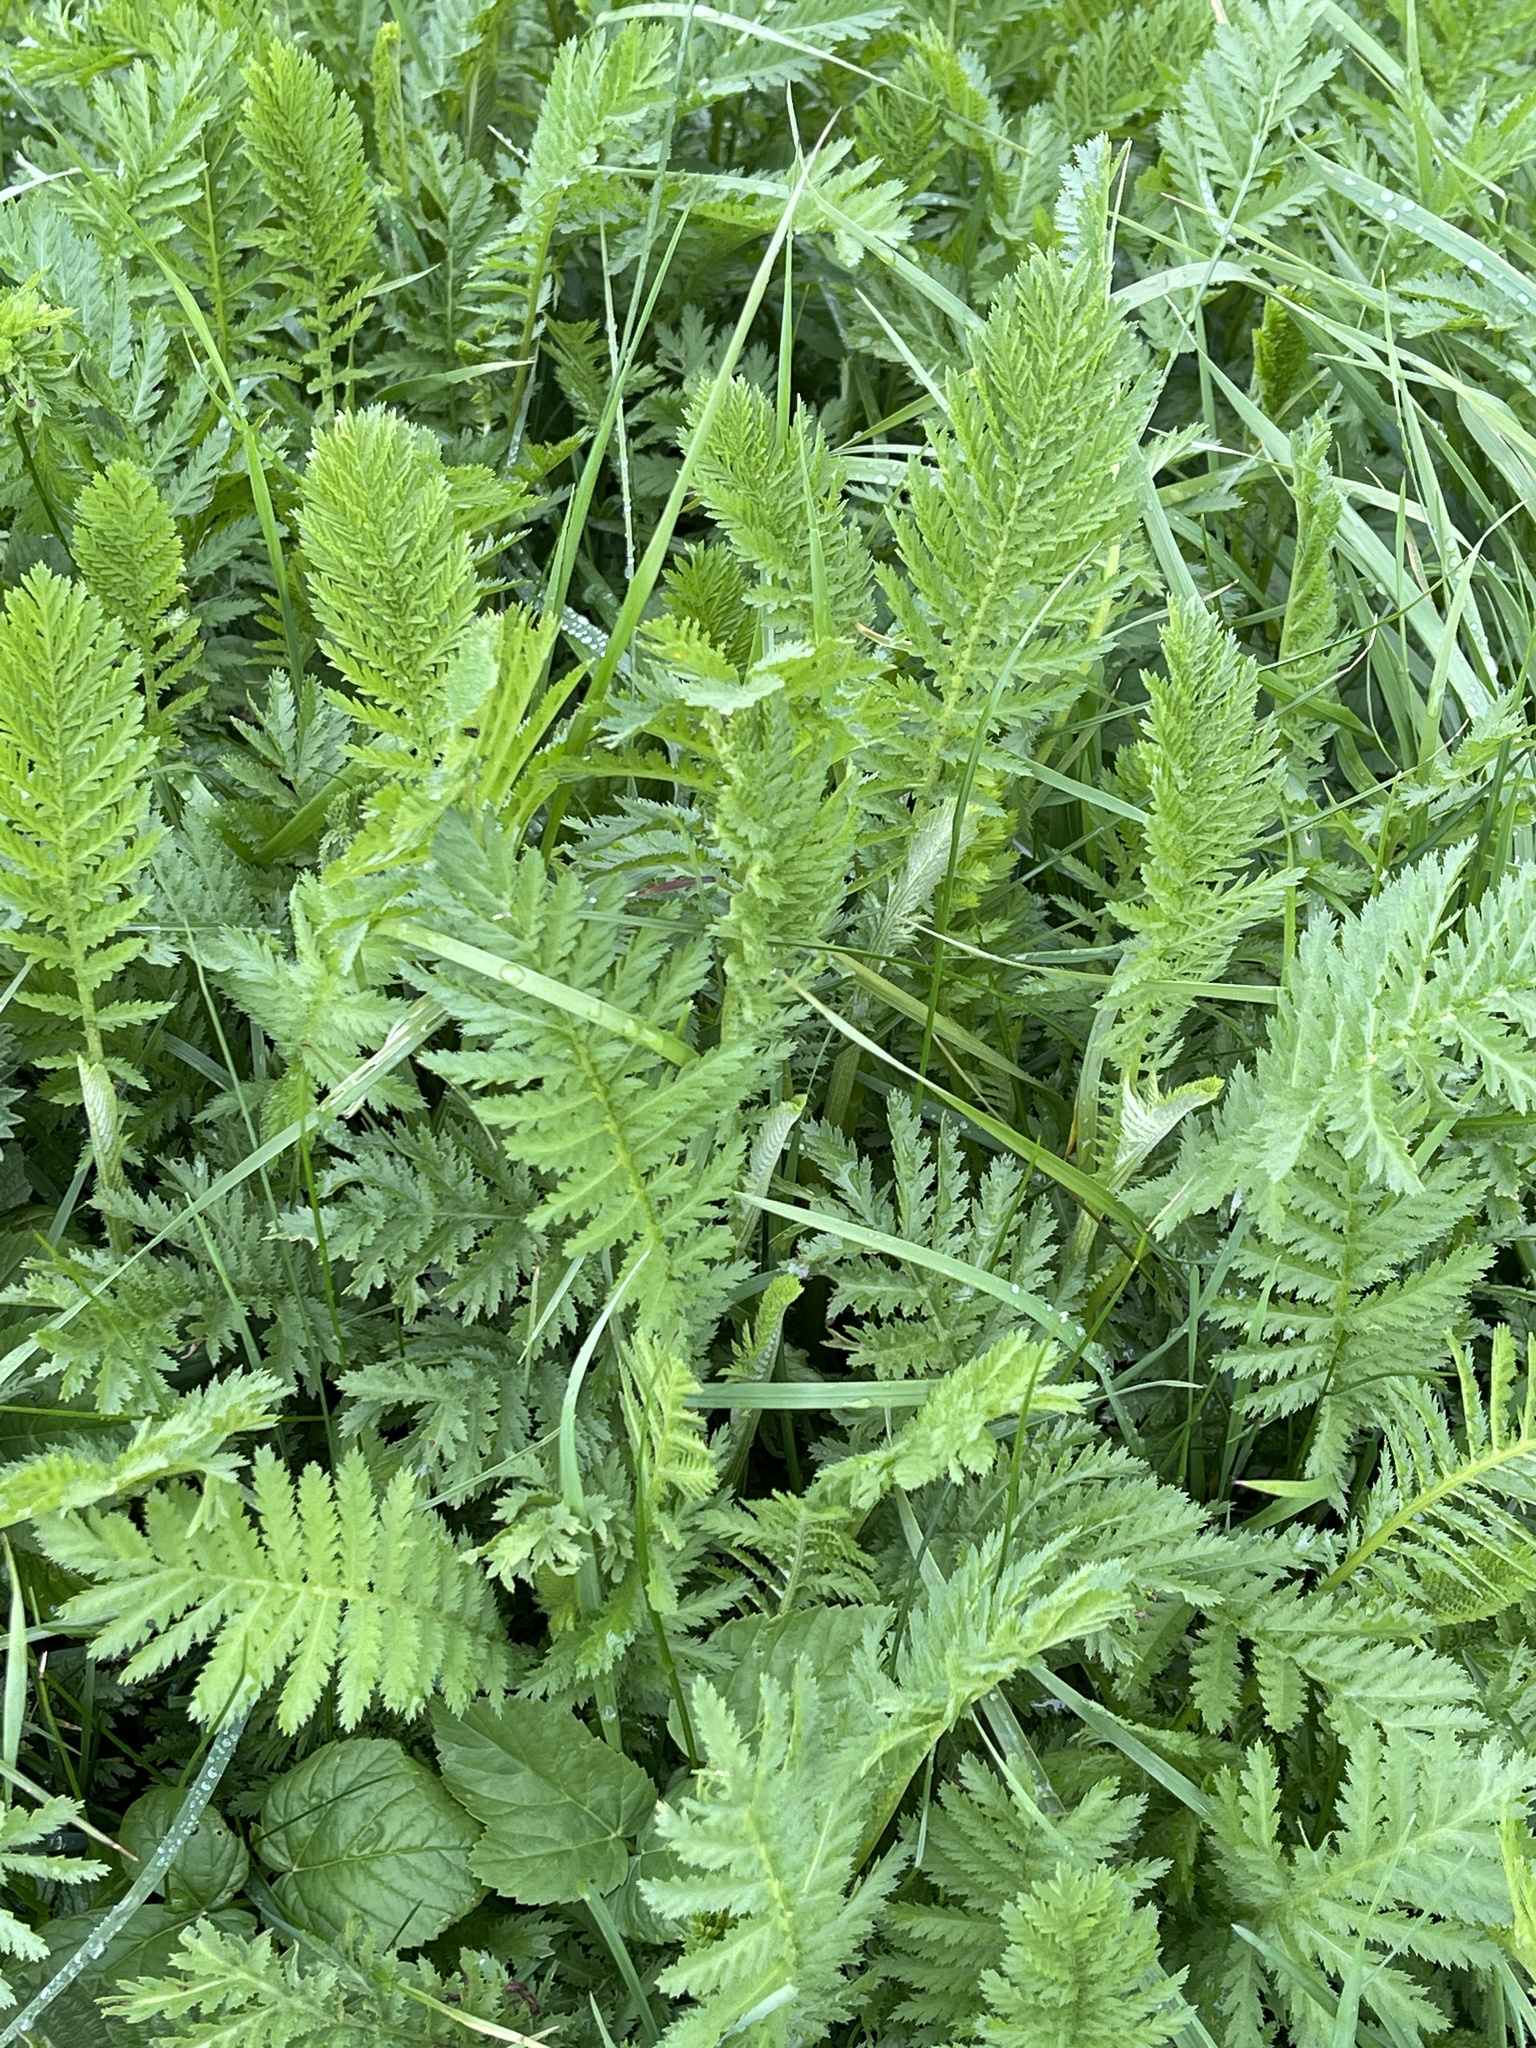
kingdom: Plantae
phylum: Tracheophyta
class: Magnoliopsida
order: Asterales
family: Asteraceae
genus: Tanacetum
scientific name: Tanacetum vulgare
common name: Common tansy
